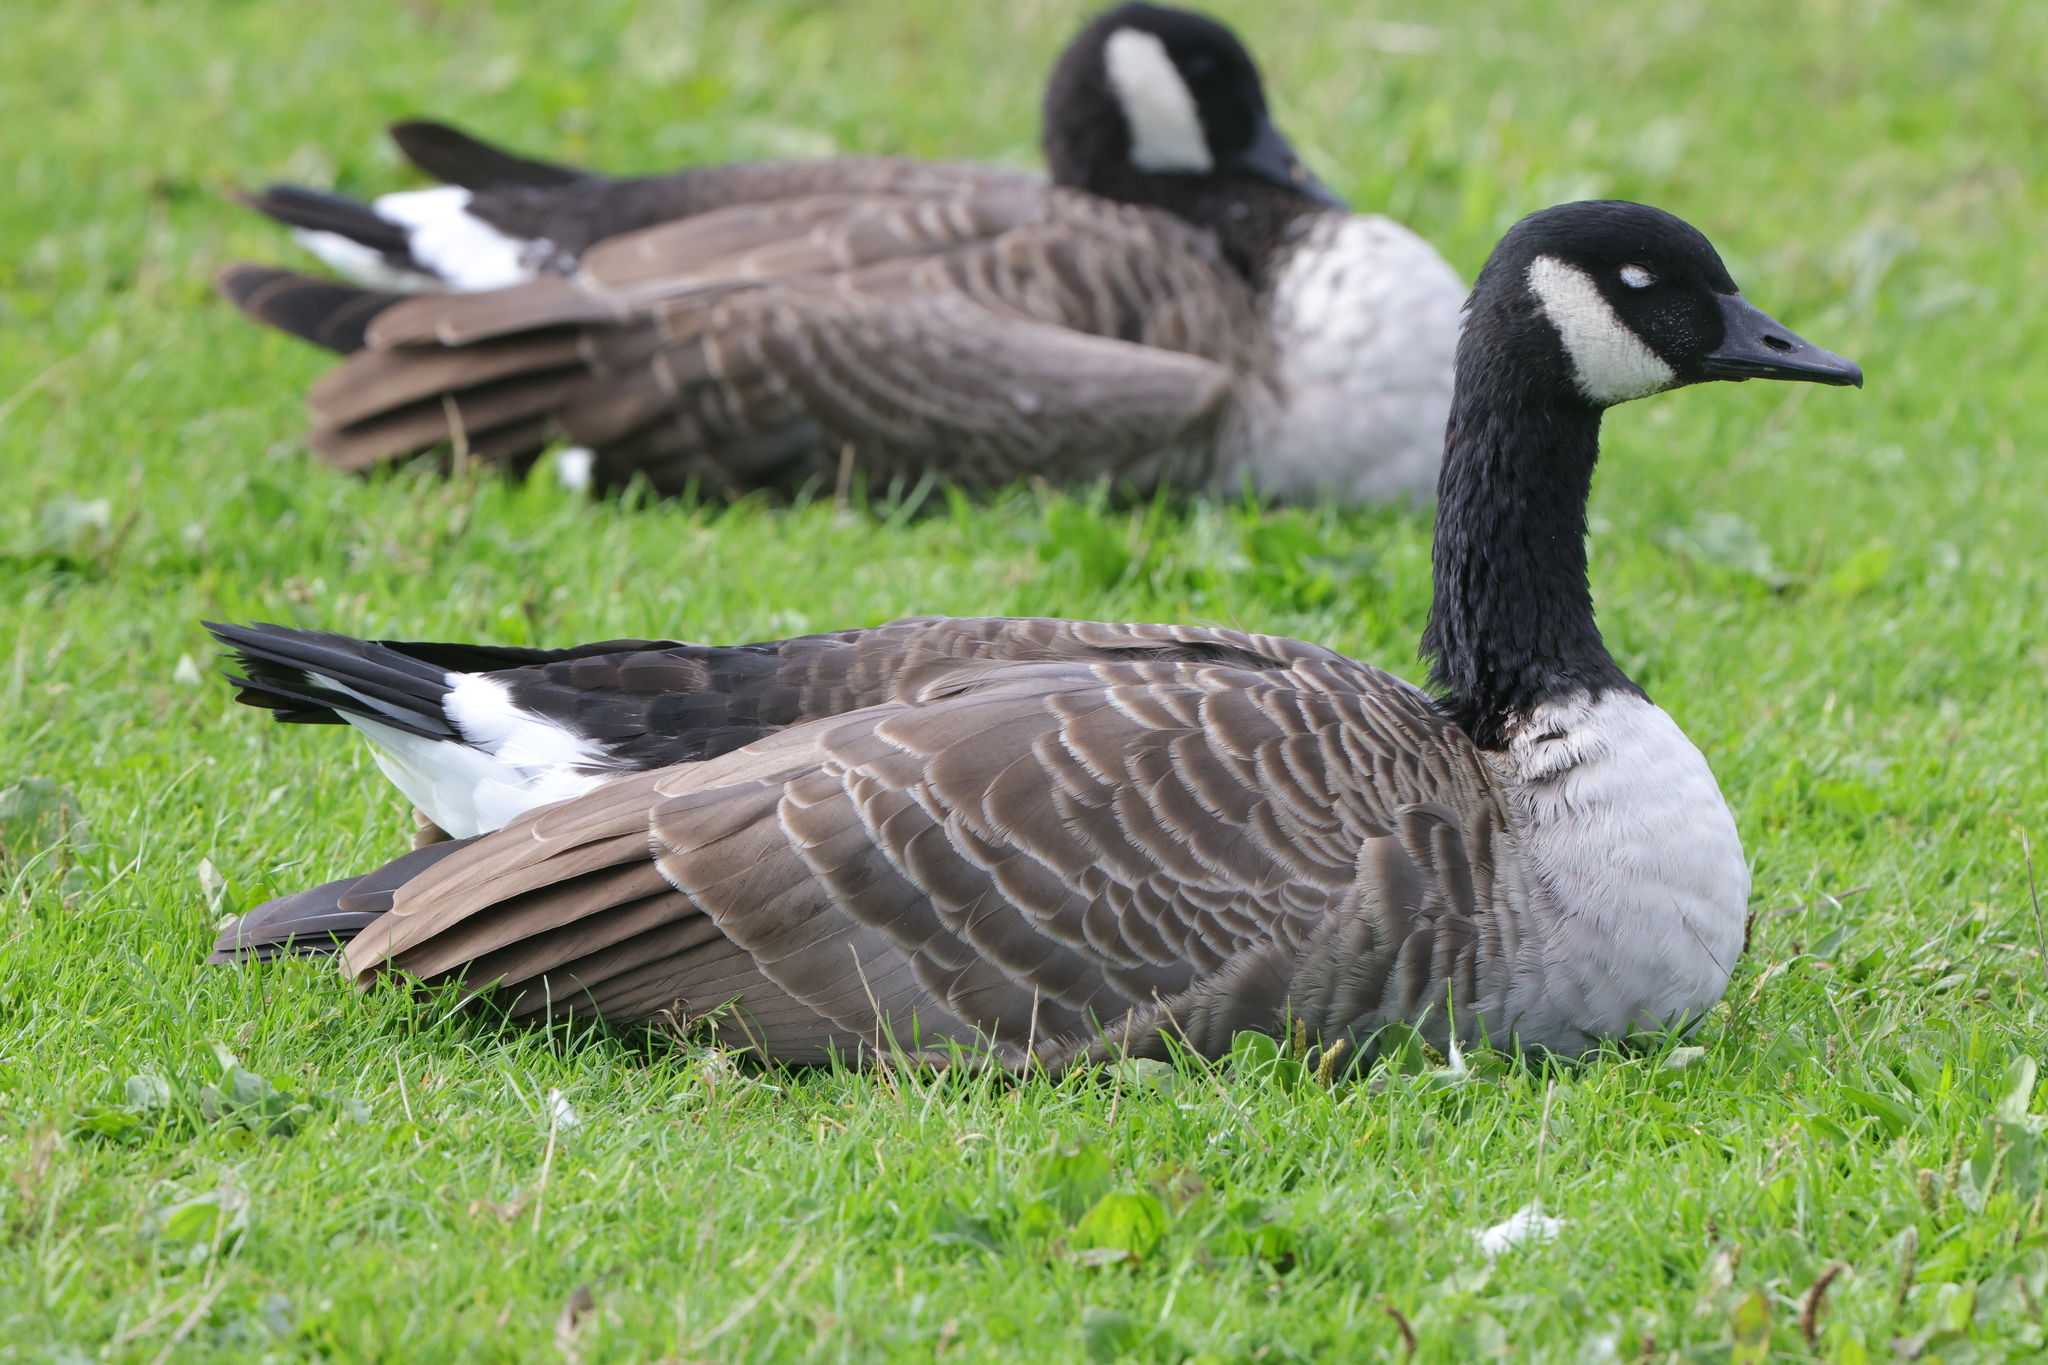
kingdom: Animalia
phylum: Chordata
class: Aves
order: Anseriformes
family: Anatidae
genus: Branta
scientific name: Branta canadensis
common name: Canada goose
